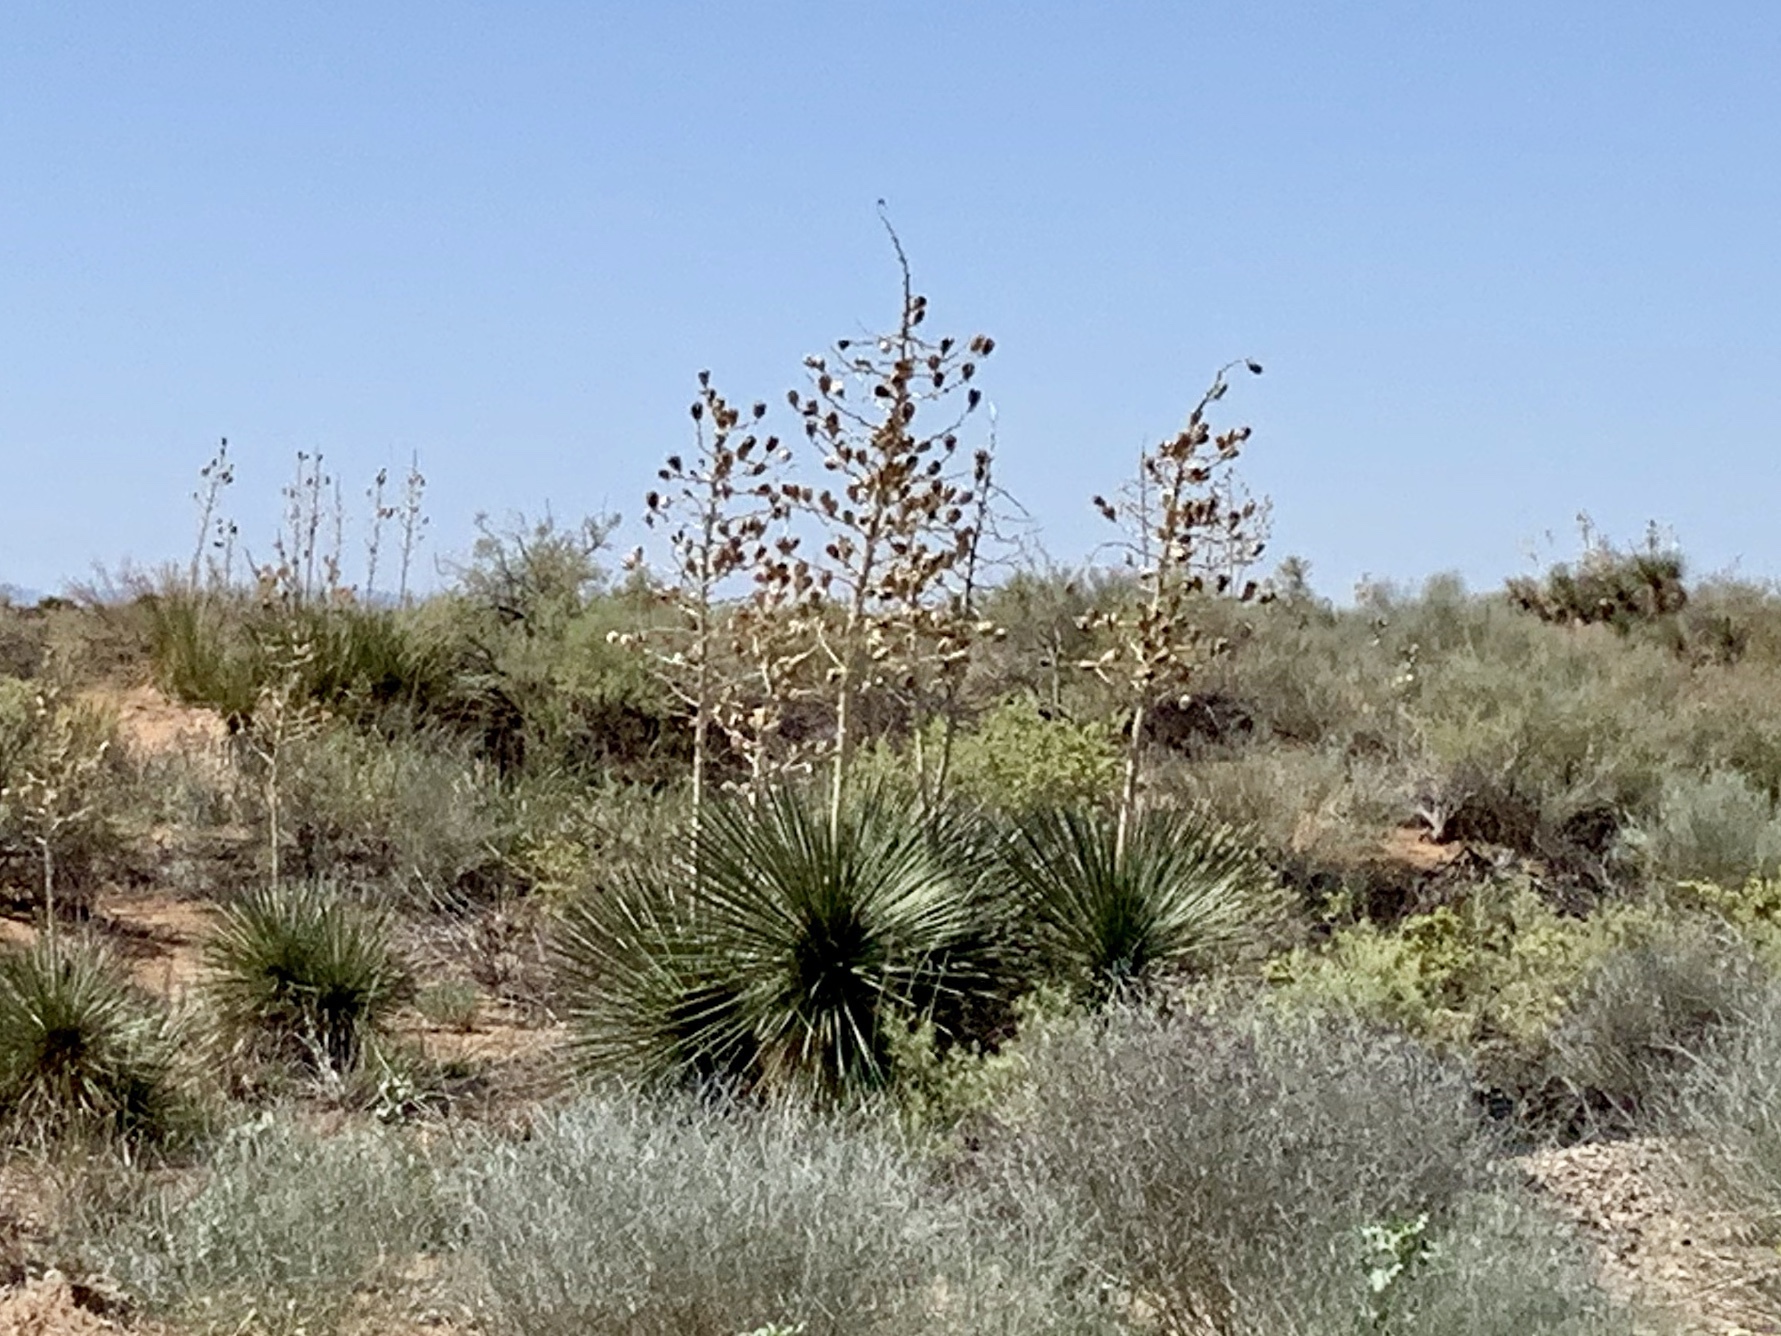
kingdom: Plantae
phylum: Tracheophyta
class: Liliopsida
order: Asparagales
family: Asparagaceae
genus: Yucca
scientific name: Yucca elata
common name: Palmella
